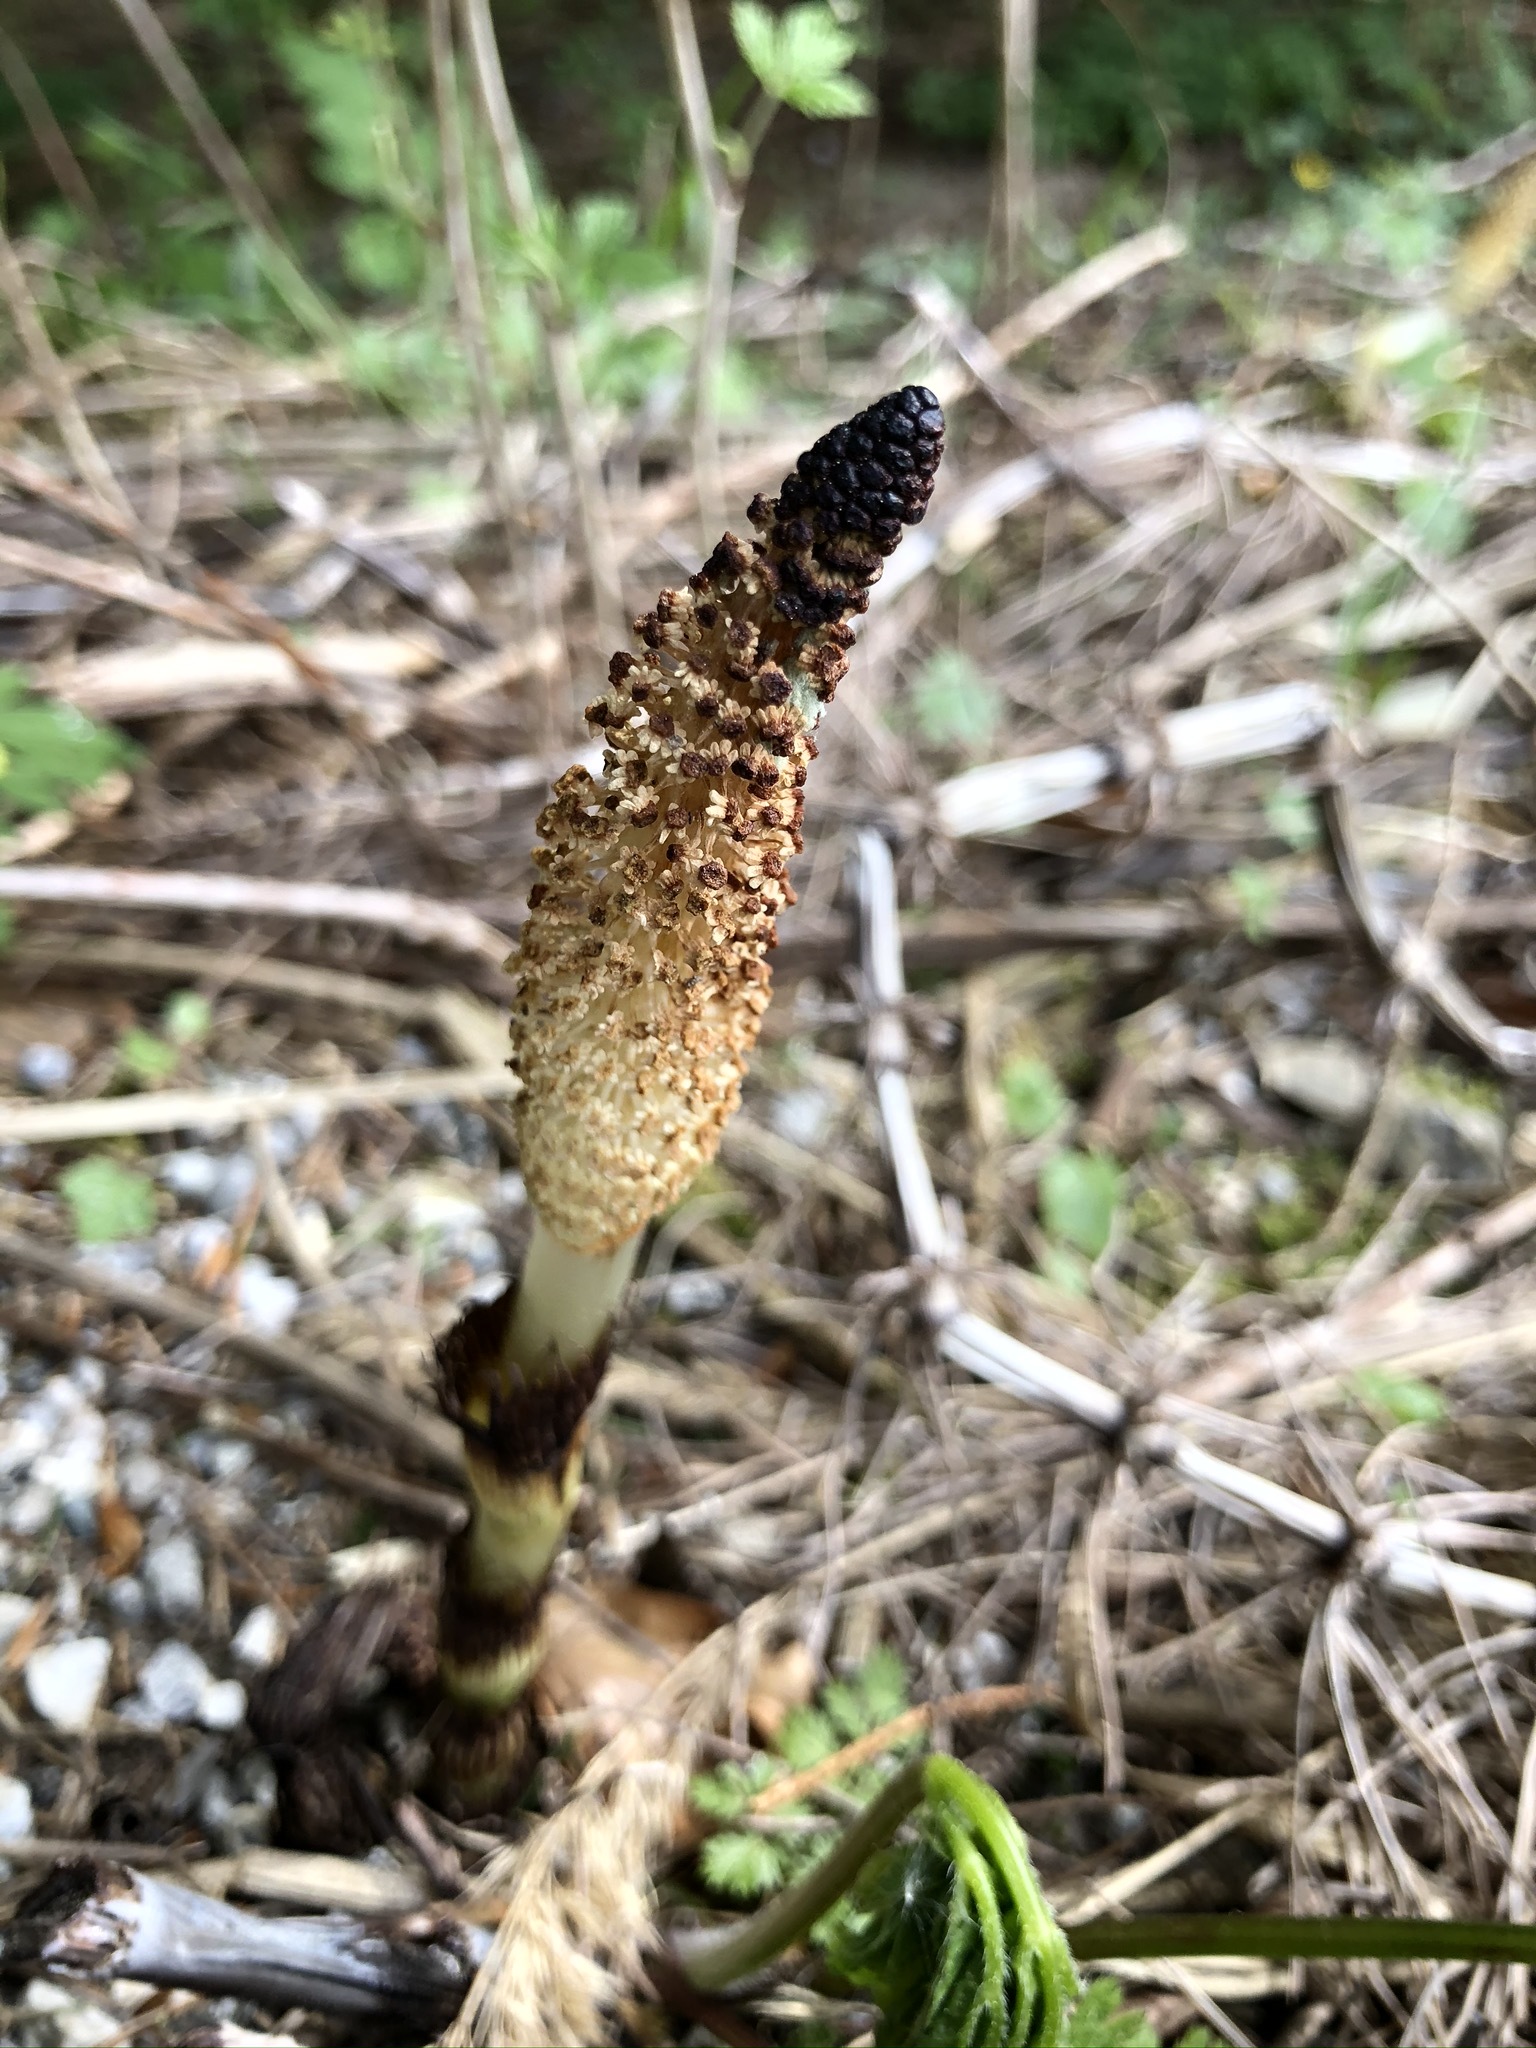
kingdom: Plantae
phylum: Tracheophyta
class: Polypodiopsida
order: Equisetales
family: Equisetaceae
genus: Equisetum
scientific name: Equisetum telmateia
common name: Great horsetail
